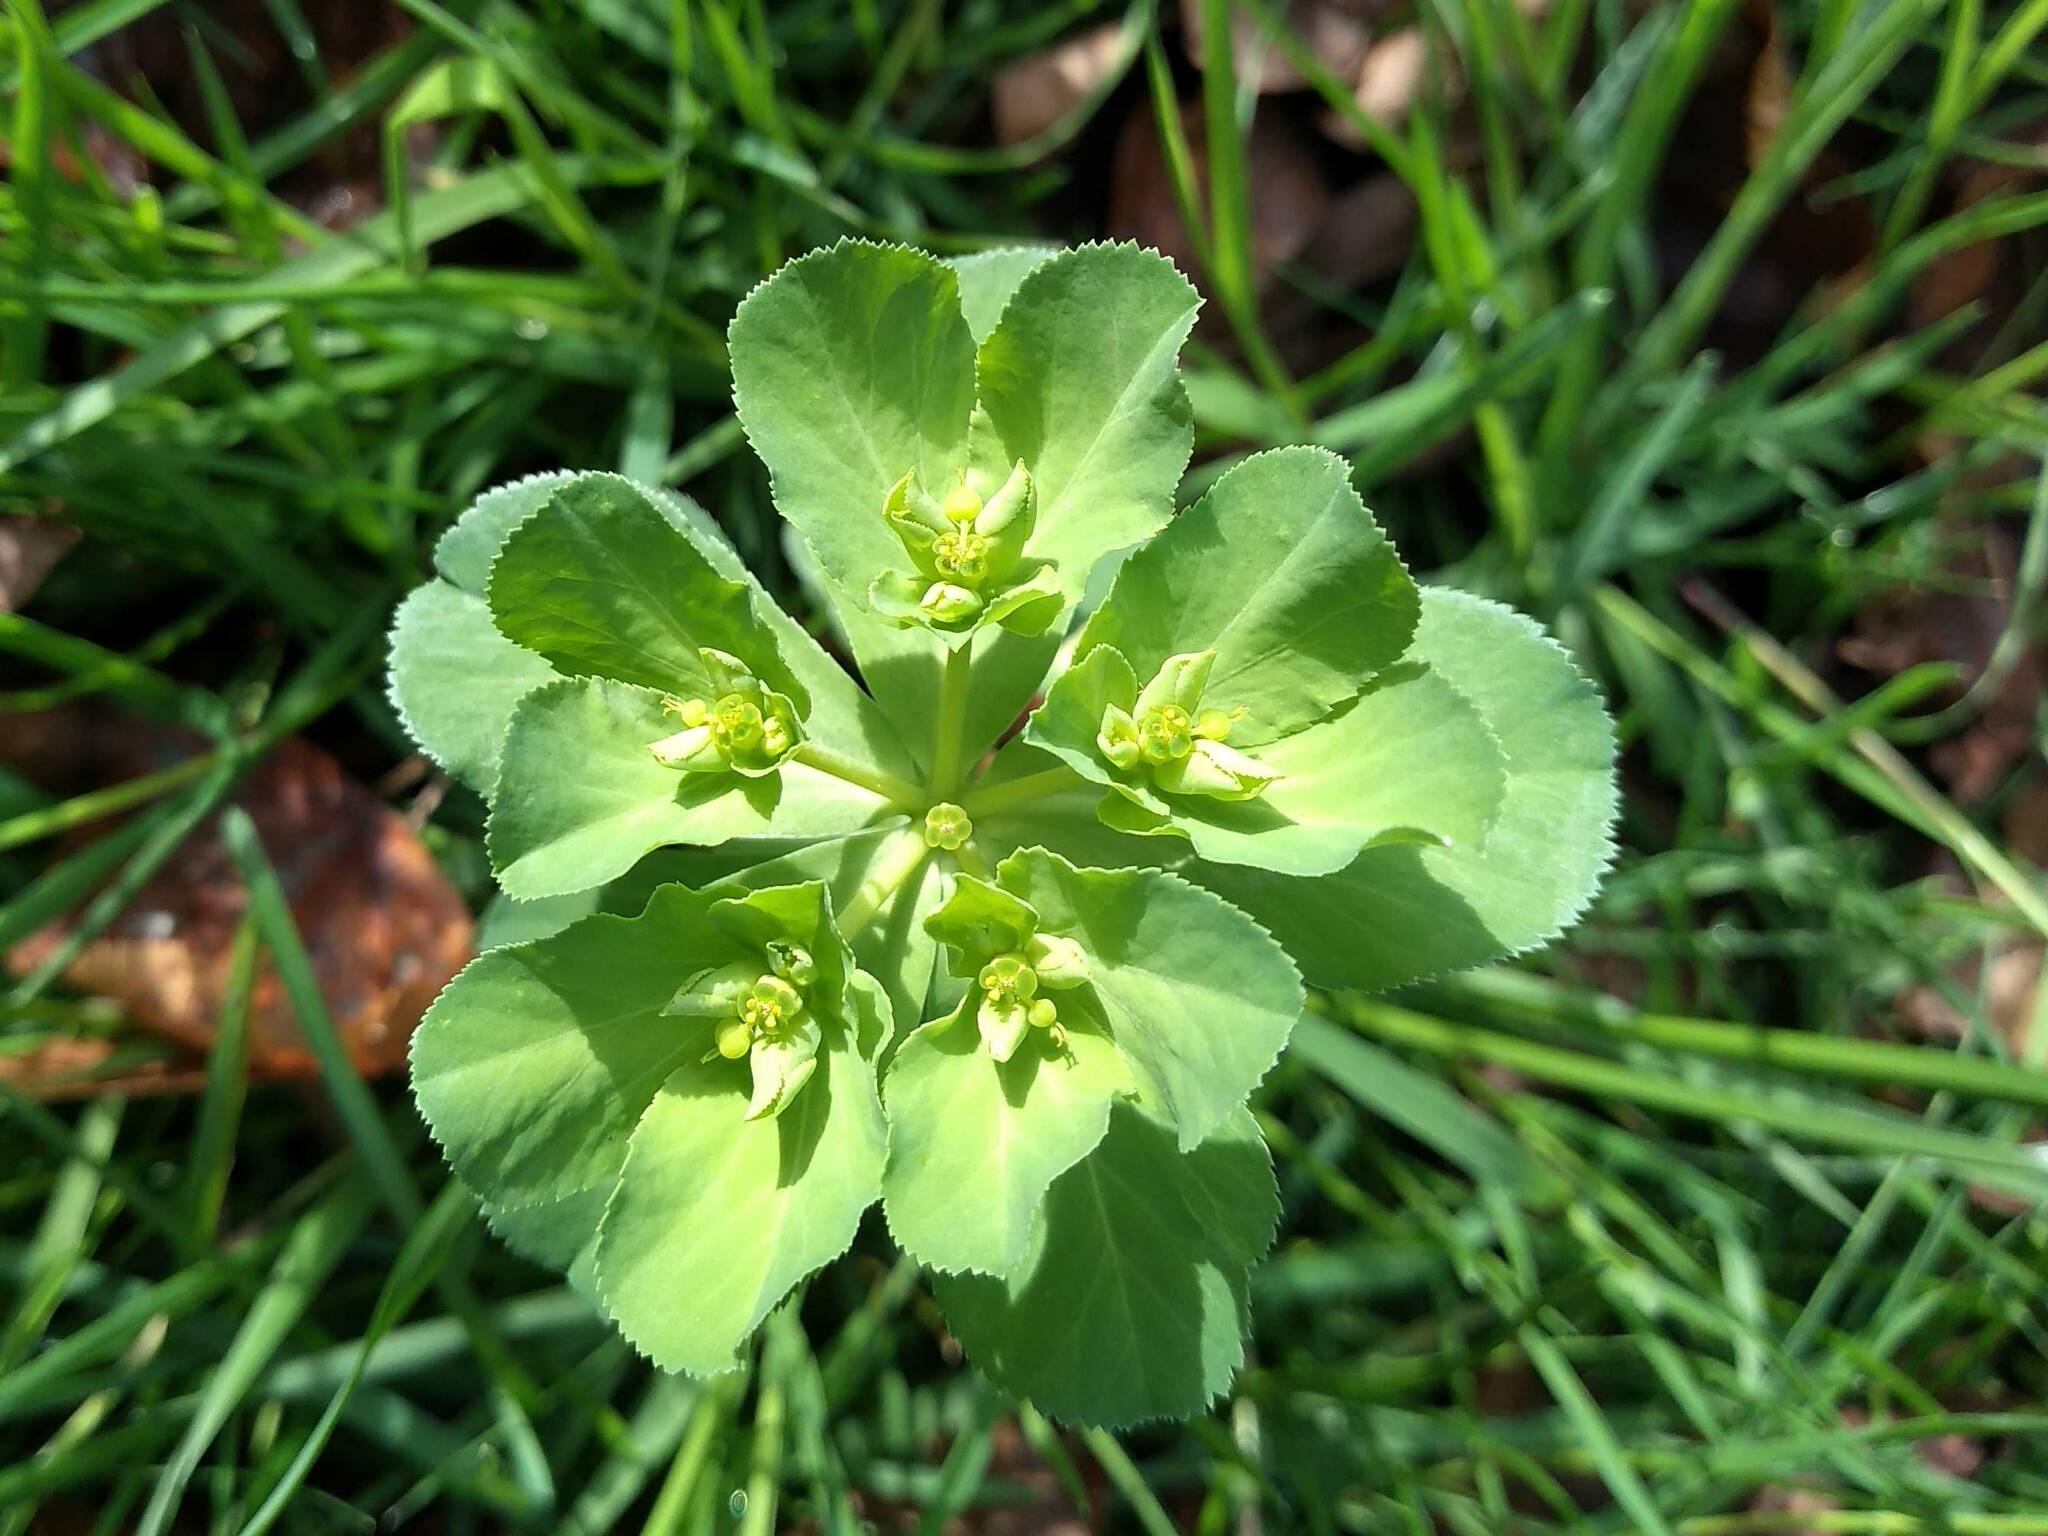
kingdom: Plantae
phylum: Tracheophyta
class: Magnoliopsida
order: Malpighiales
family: Euphorbiaceae
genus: Euphorbia
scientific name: Euphorbia helioscopia
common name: Sun spurge
